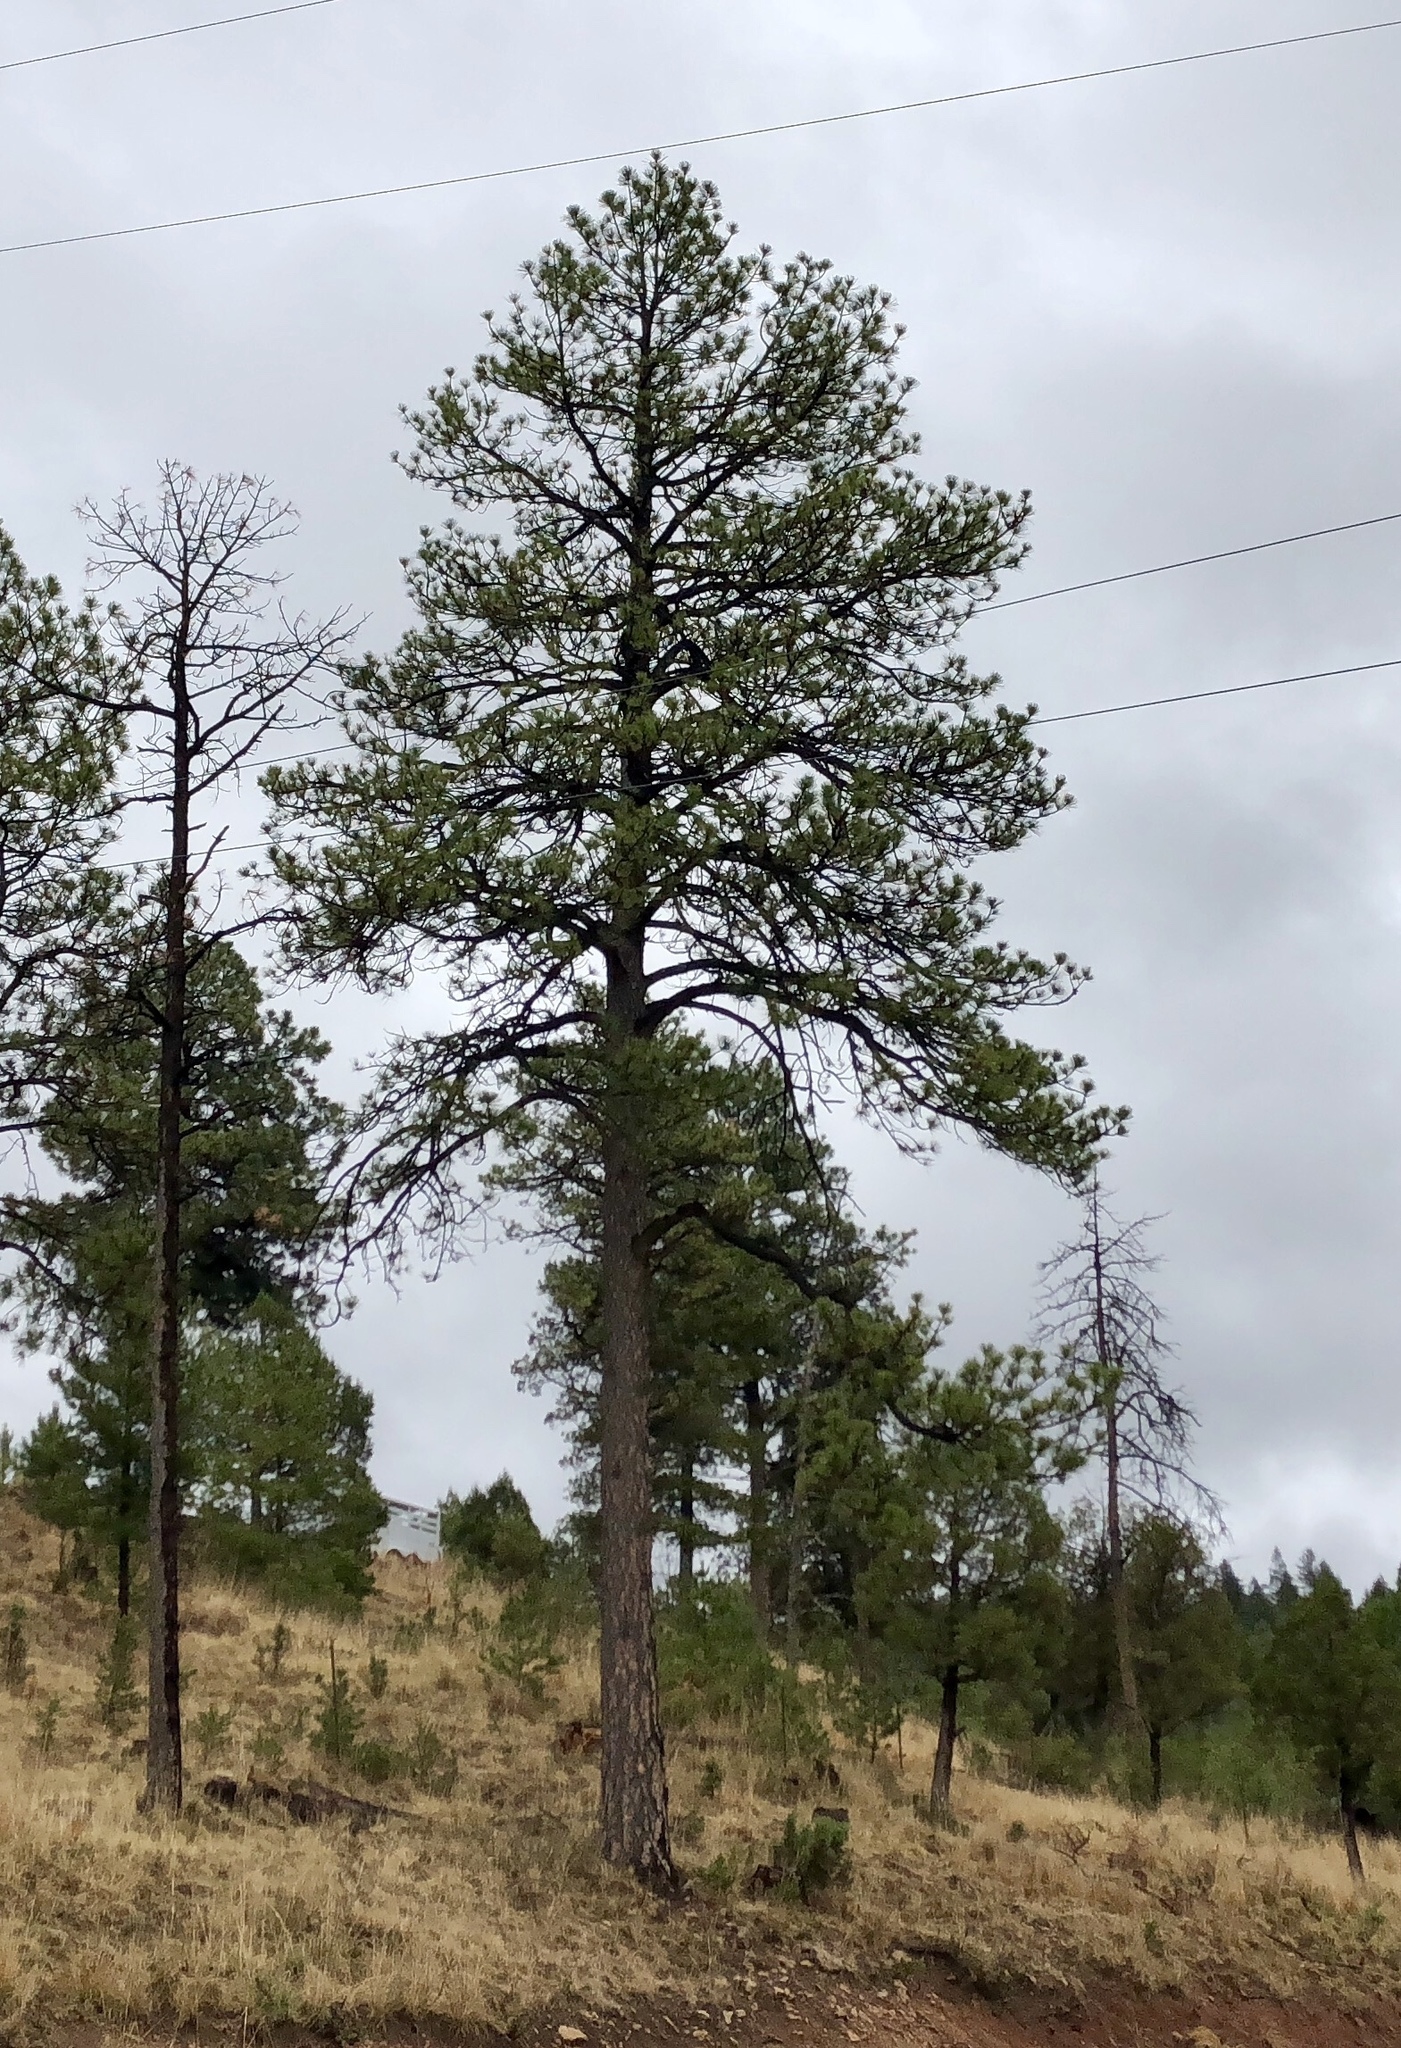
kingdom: Plantae
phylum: Tracheophyta
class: Pinopsida
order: Pinales
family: Pinaceae
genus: Pinus
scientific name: Pinus ponderosa
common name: Western yellow-pine
